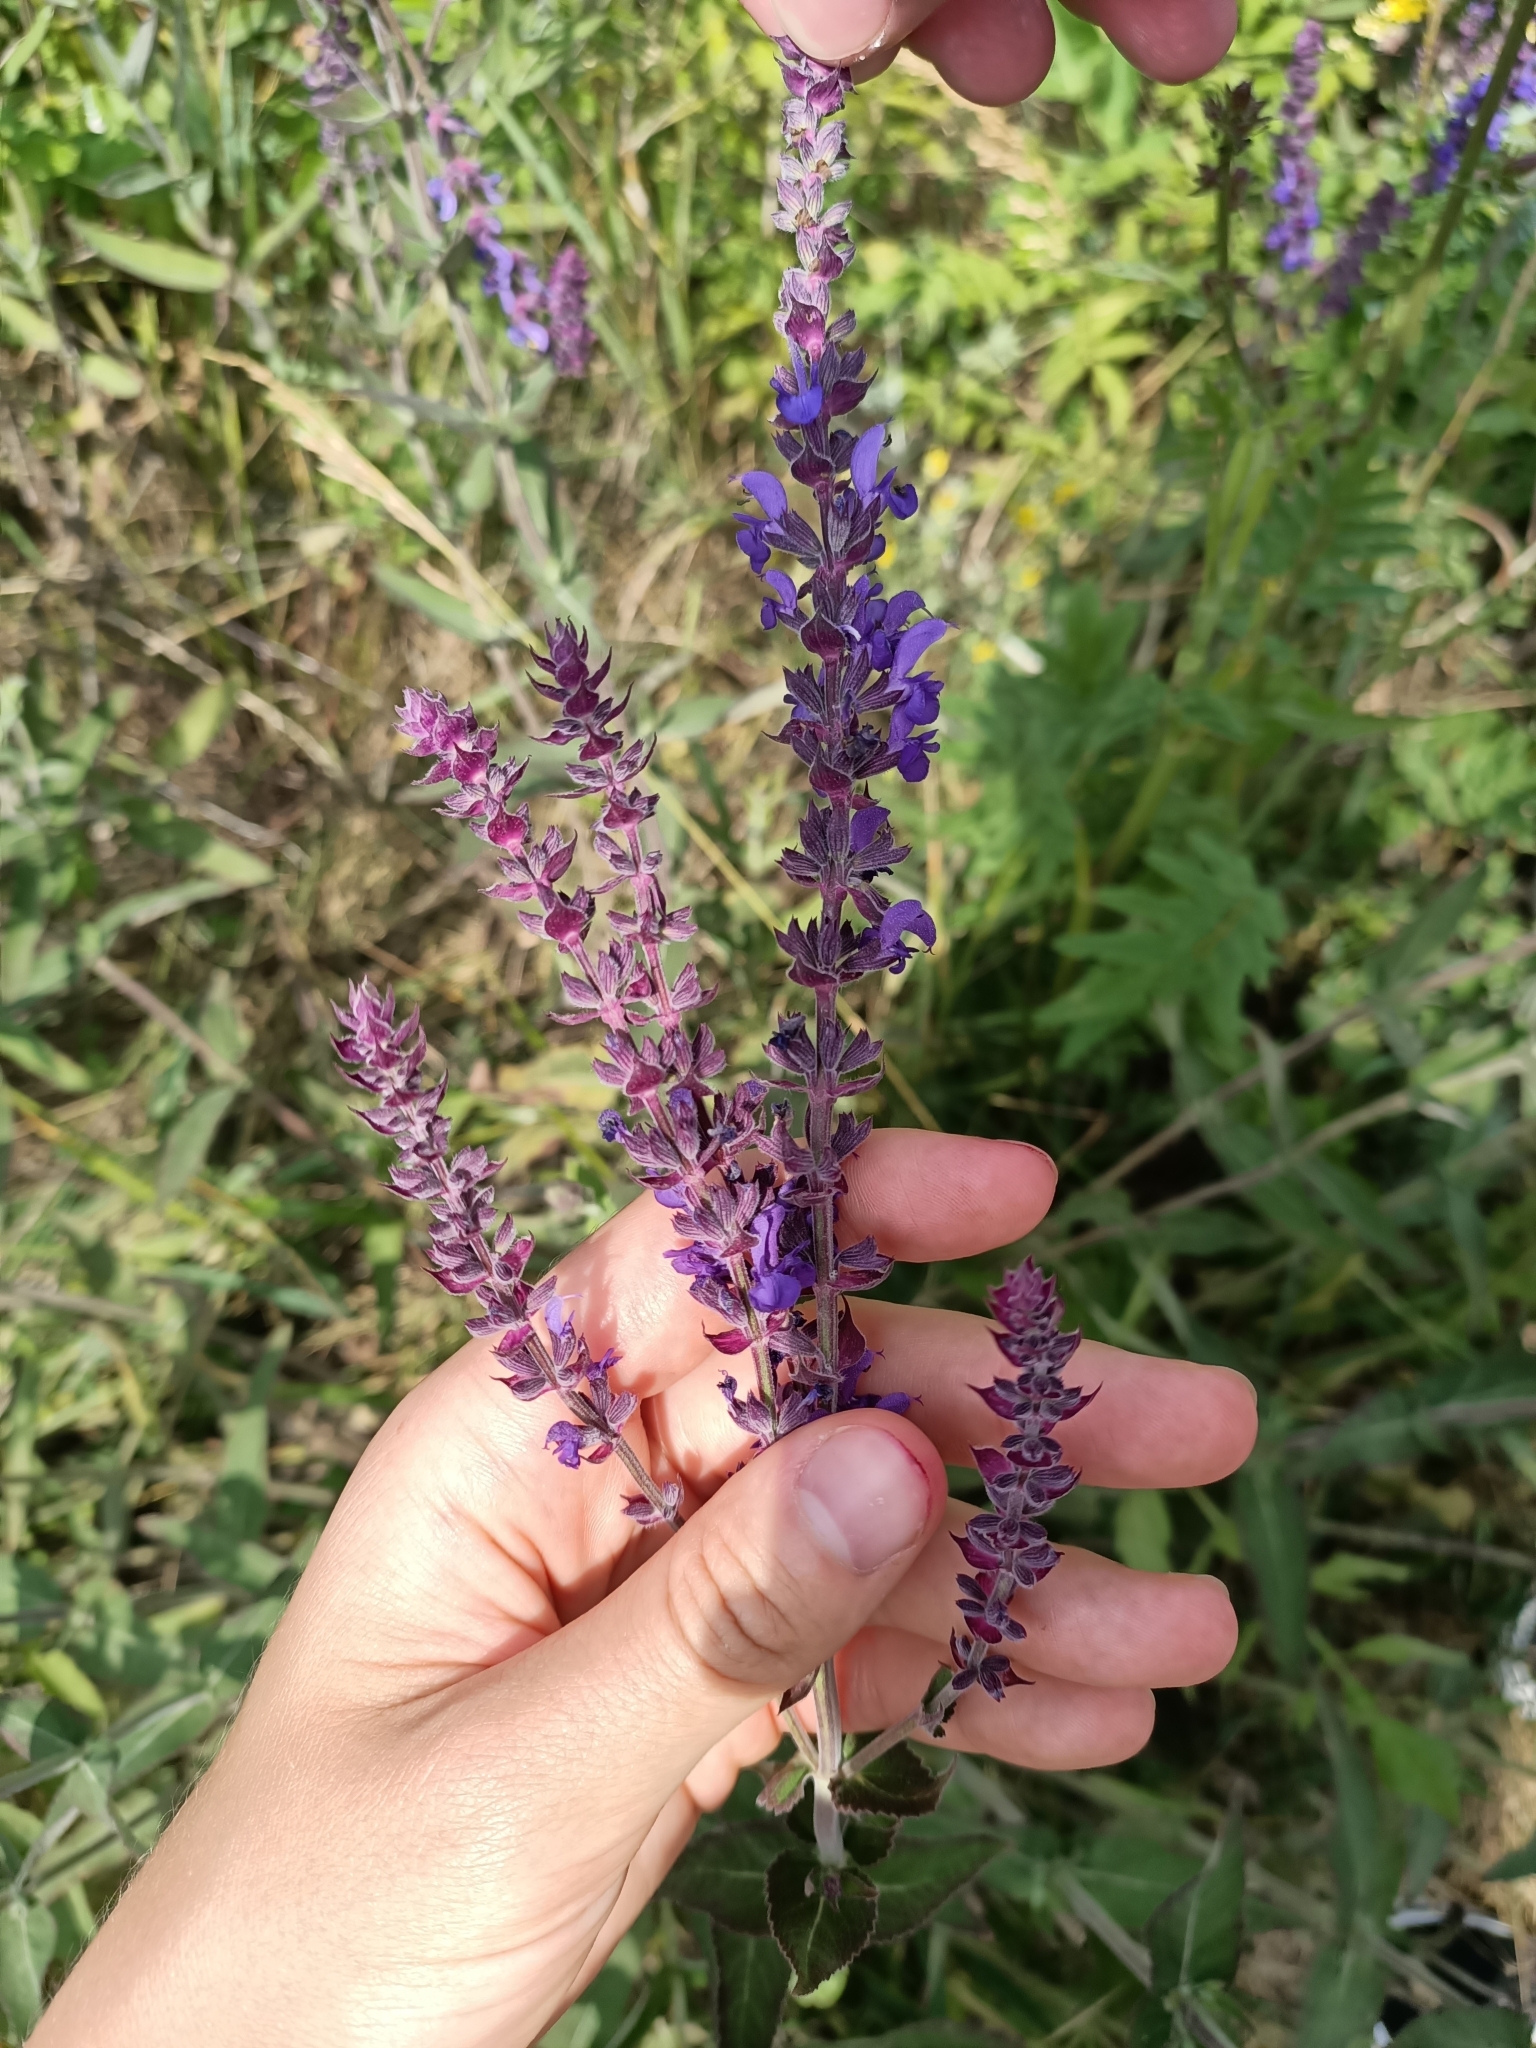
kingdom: Plantae
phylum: Tracheophyta
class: Magnoliopsida
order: Lamiales
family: Lamiaceae
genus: Salvia
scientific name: Salvia nemorosa
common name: Balkan clary
